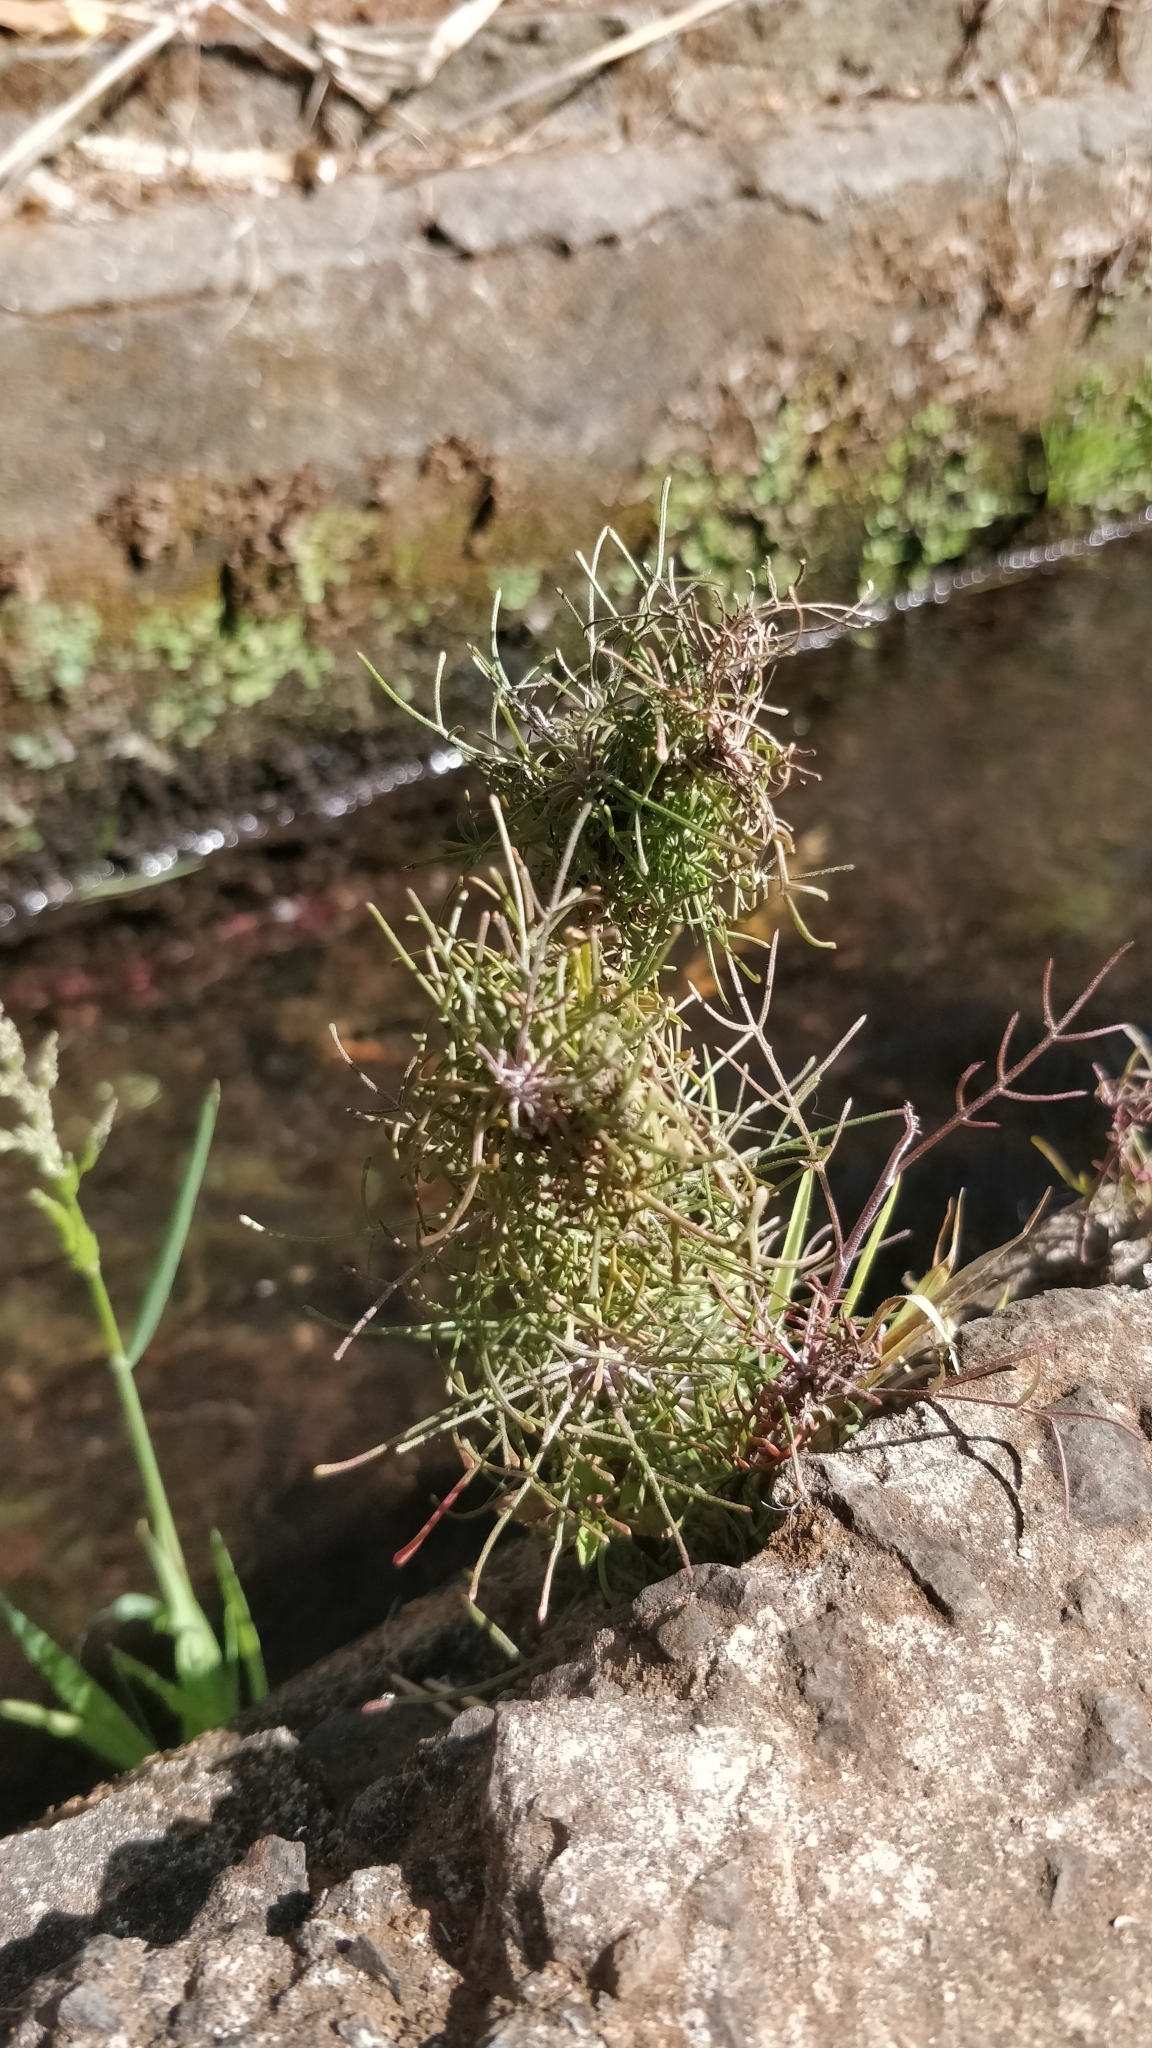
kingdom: Plantae
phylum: Tracheophyta
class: Magnoliopsida
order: Asterales
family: Asteraceae
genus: Tolpis
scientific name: Tolpis succulenta
